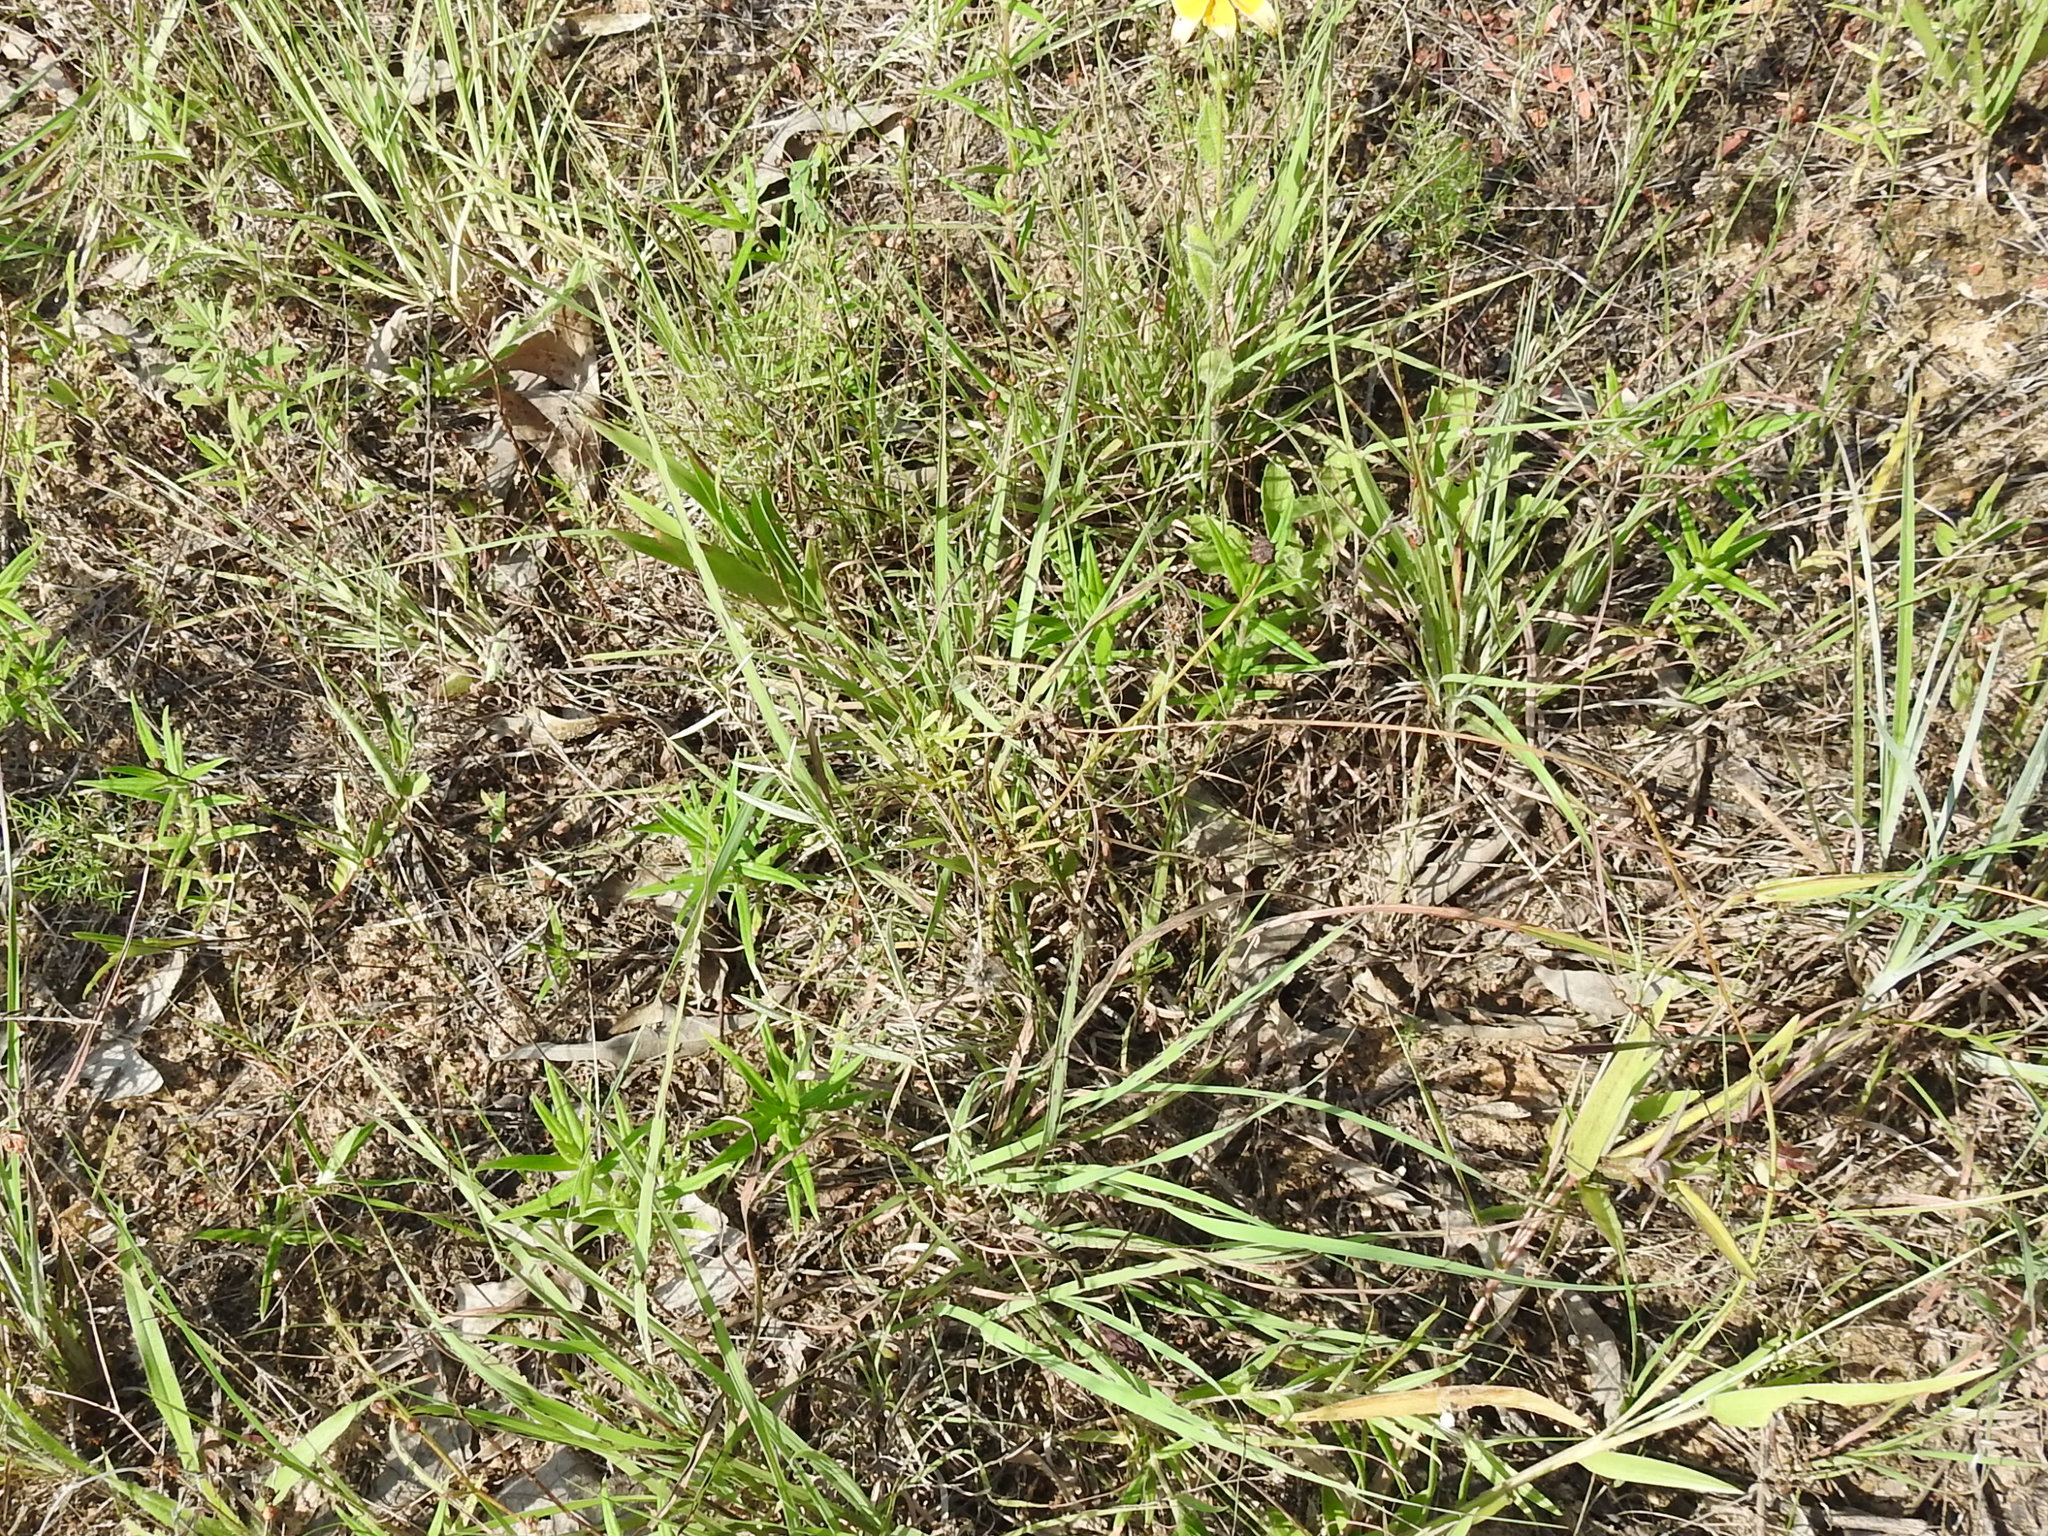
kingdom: Plantae
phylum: Tracheophyta
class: Magnoliopsida
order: Malpighiales
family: Euphorbiaceae
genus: Croton
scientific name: Croton michauxii
